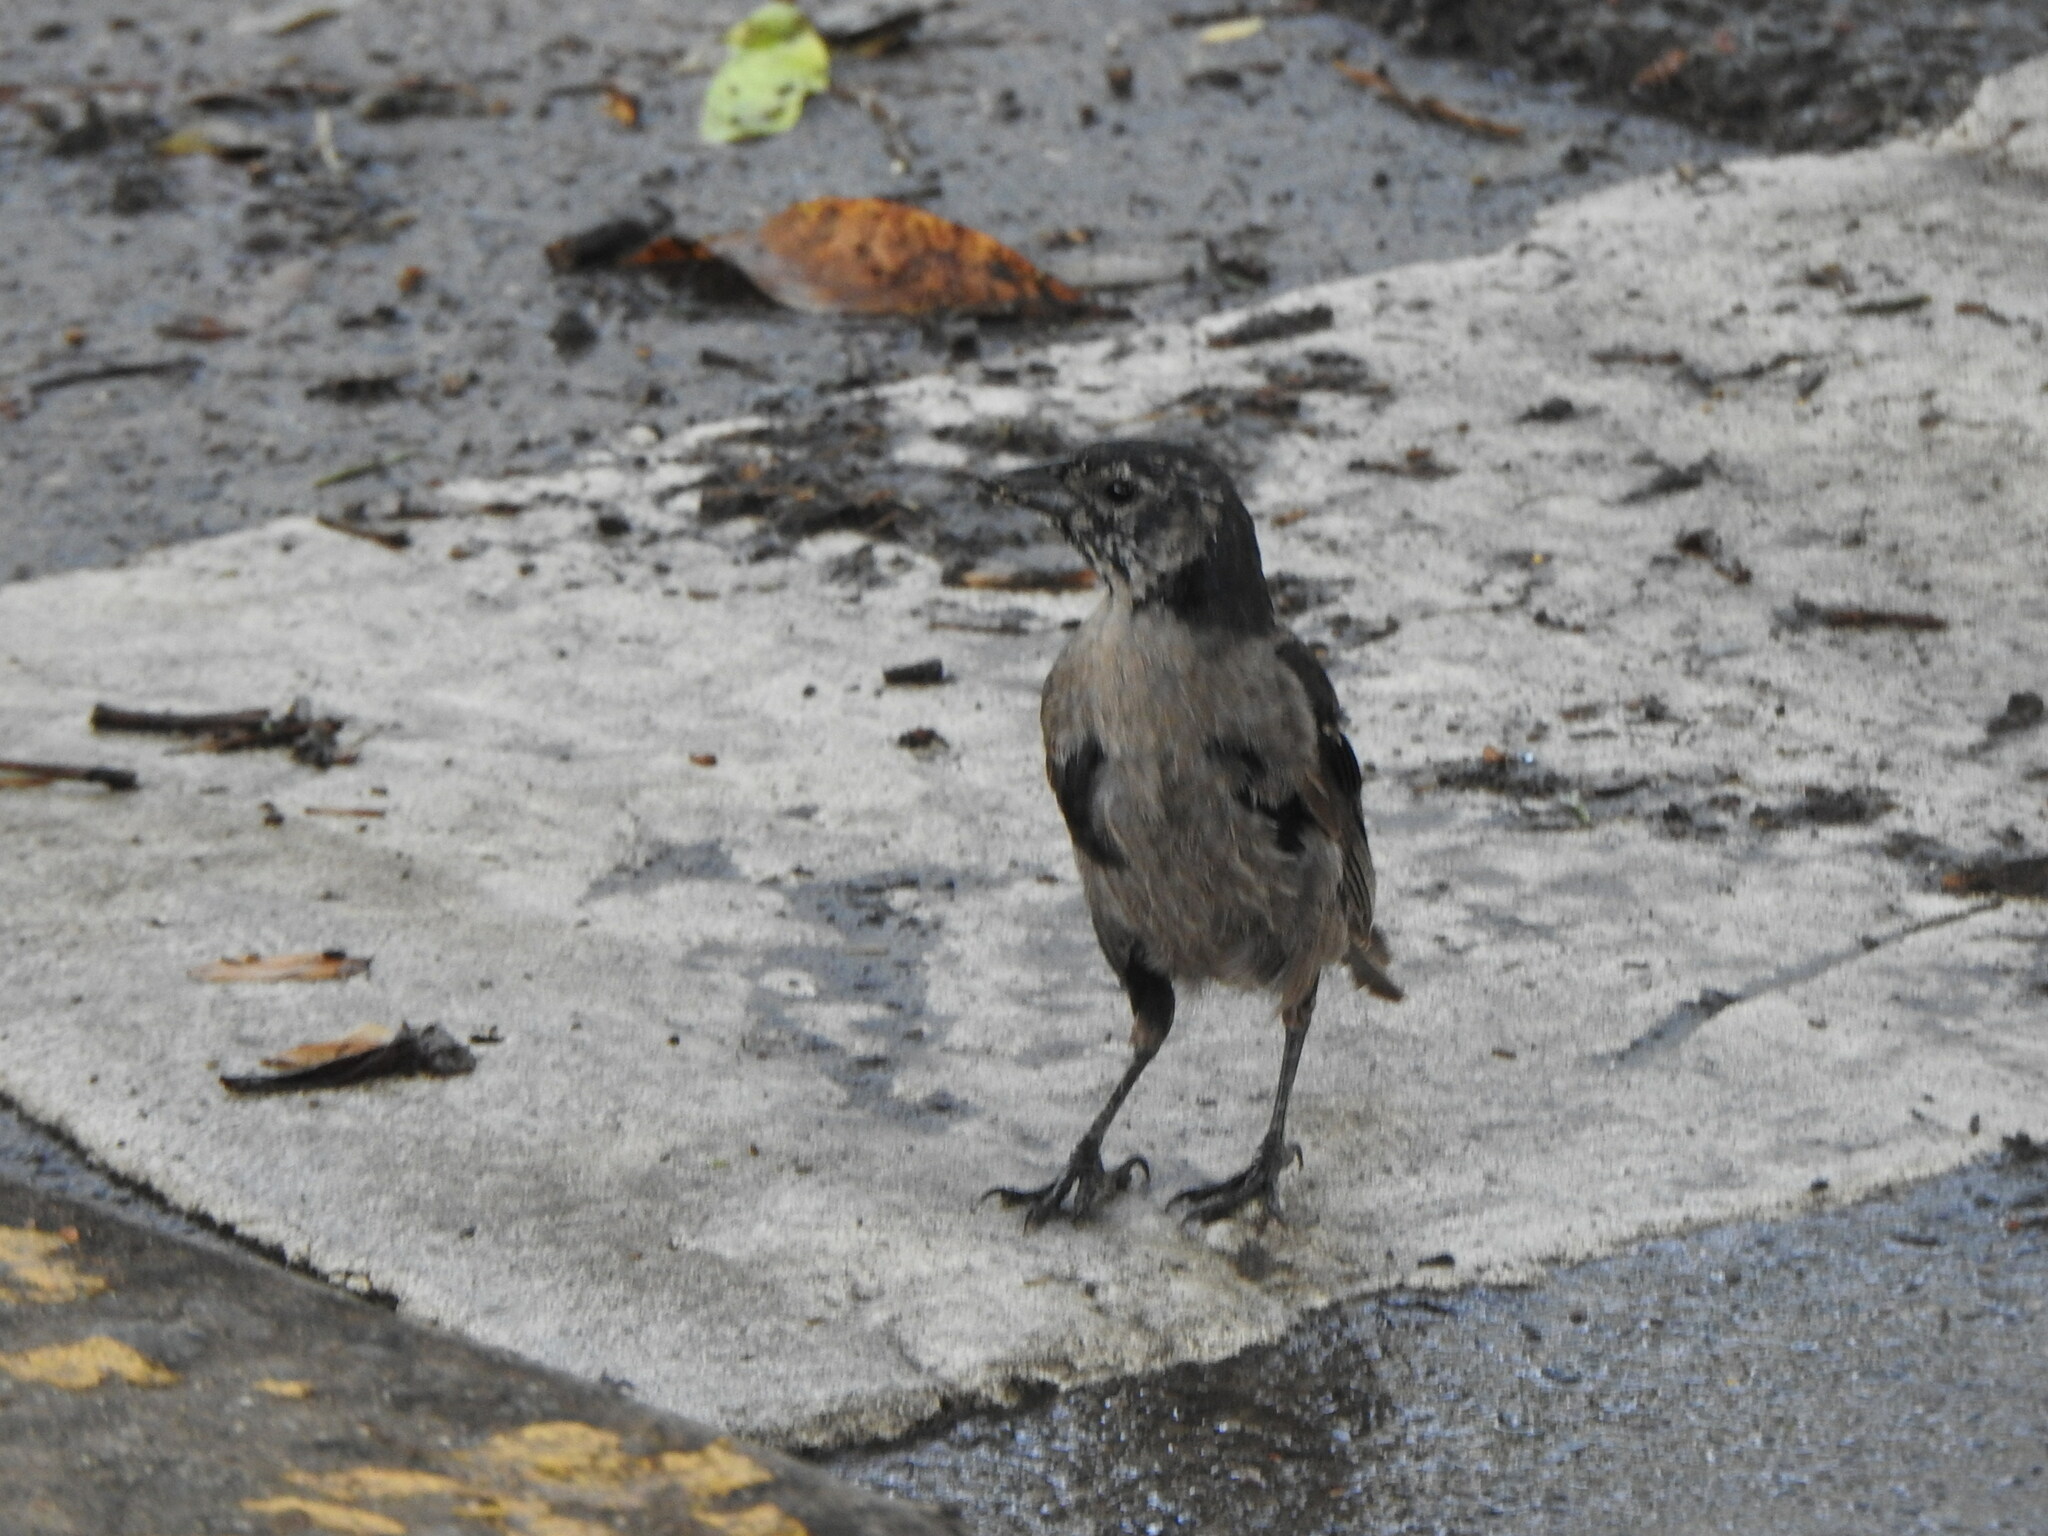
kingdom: Animalia
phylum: Chordata
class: Aves
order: Passeriformes
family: Icteridae
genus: Molothrus
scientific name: Molothrus bonariensis
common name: Shiny cowbird
